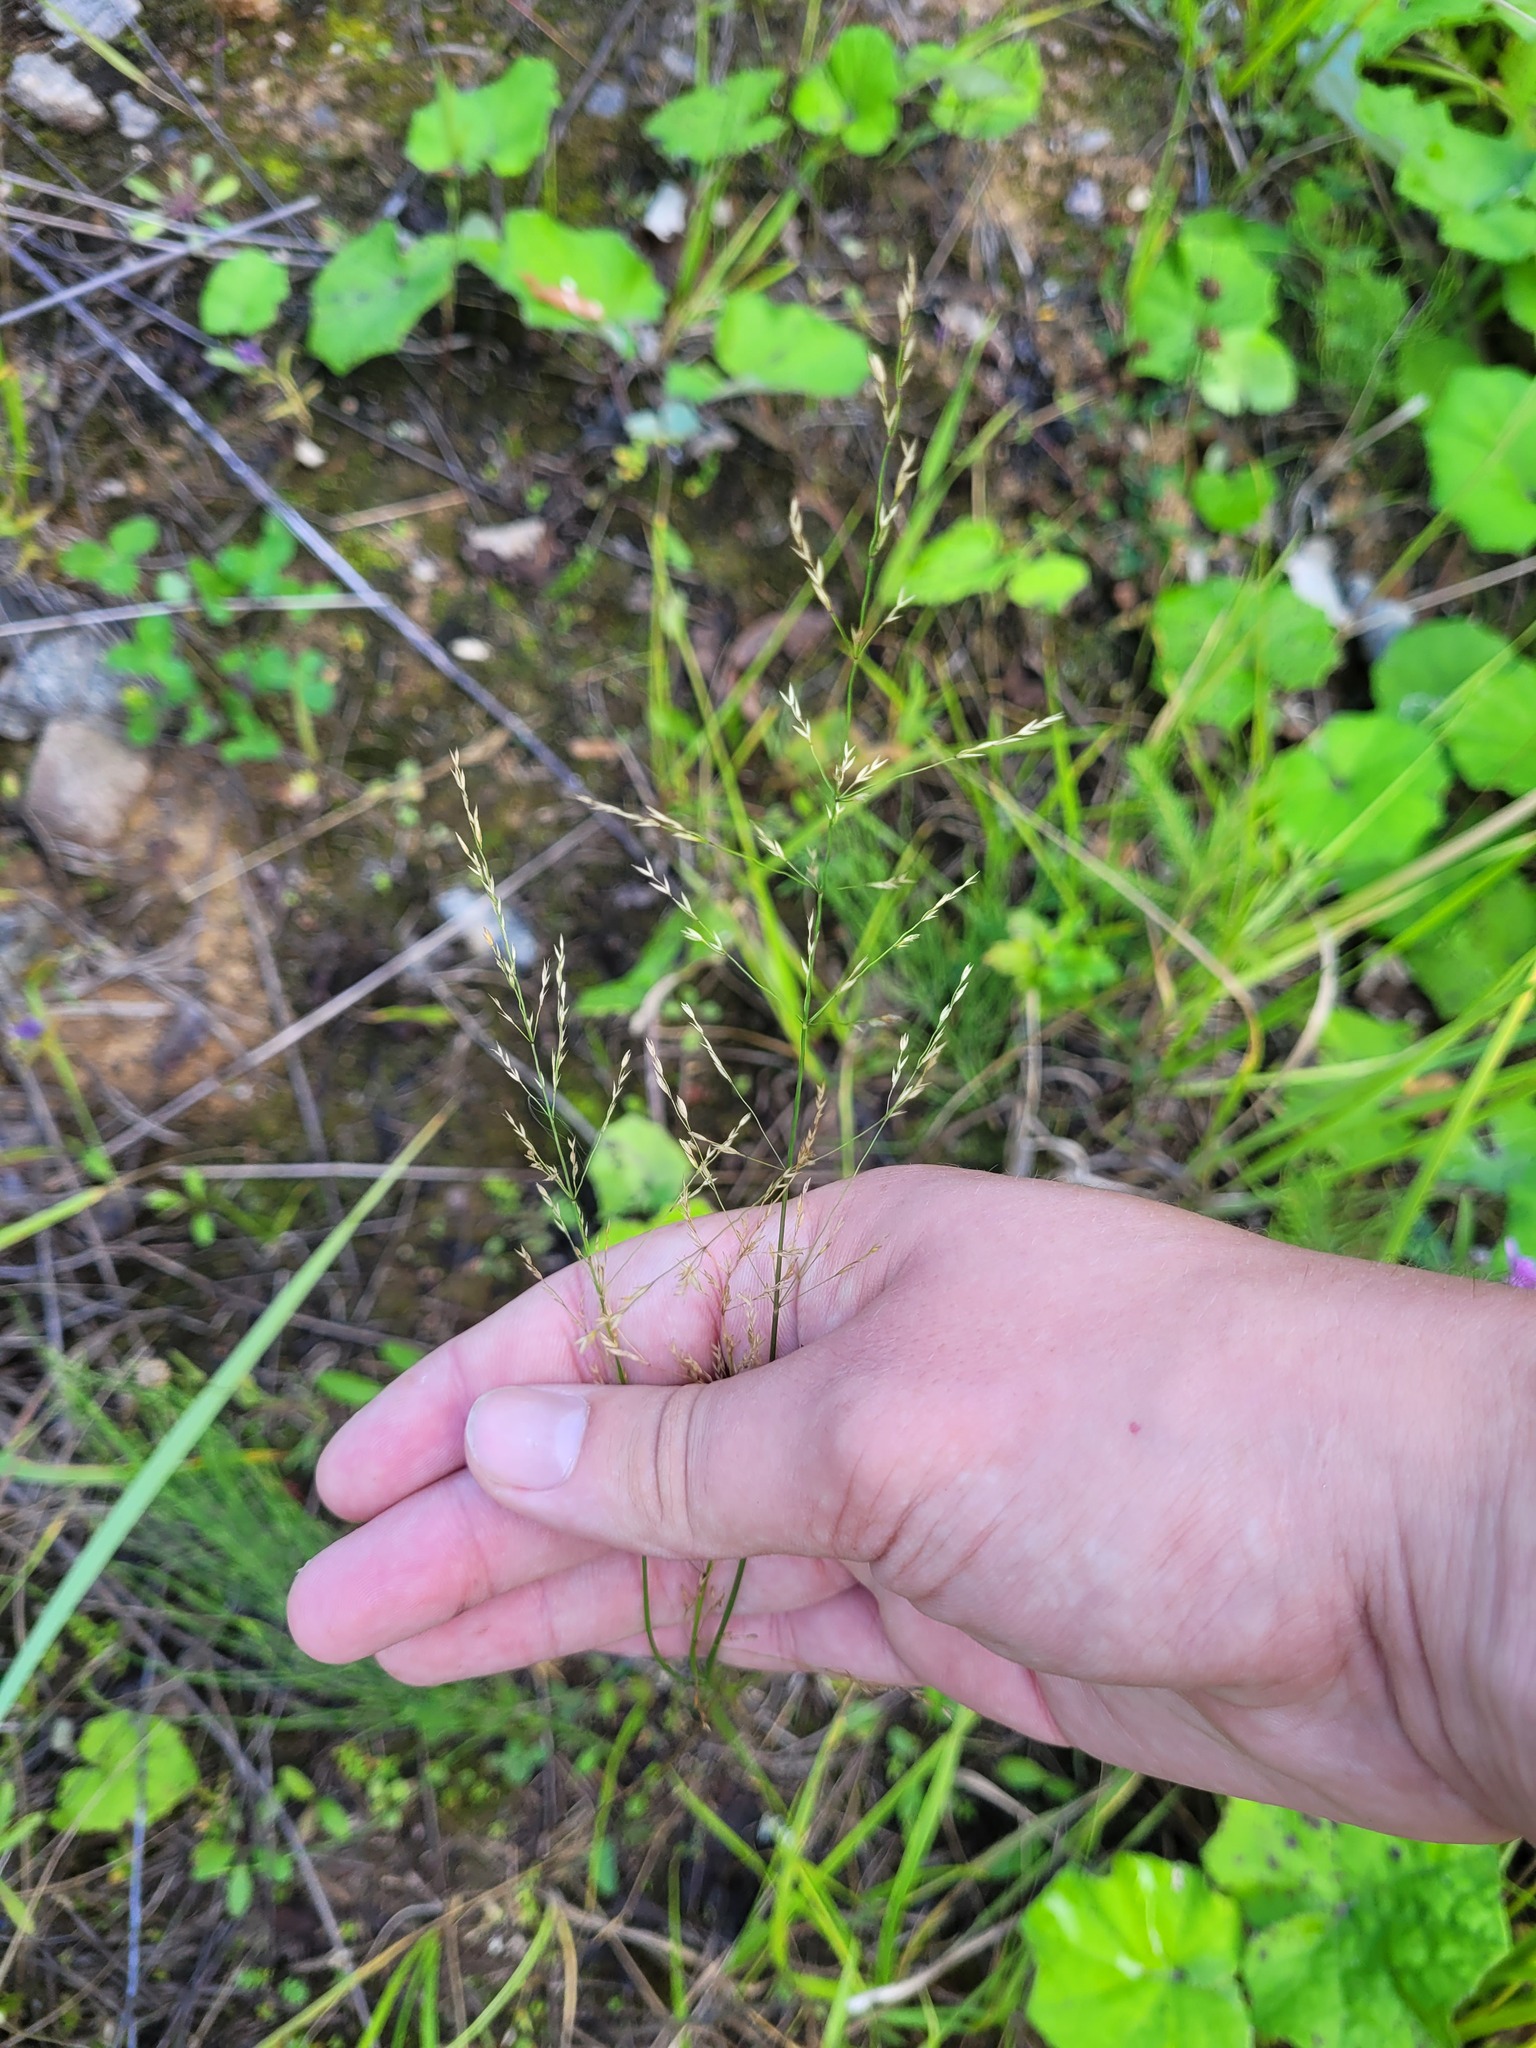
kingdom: Plantae
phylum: Tracheophyta
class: Liliopsida
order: Poales
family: Poaceae
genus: Poa
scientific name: Poa palustris
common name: Swamp meadow-grass
